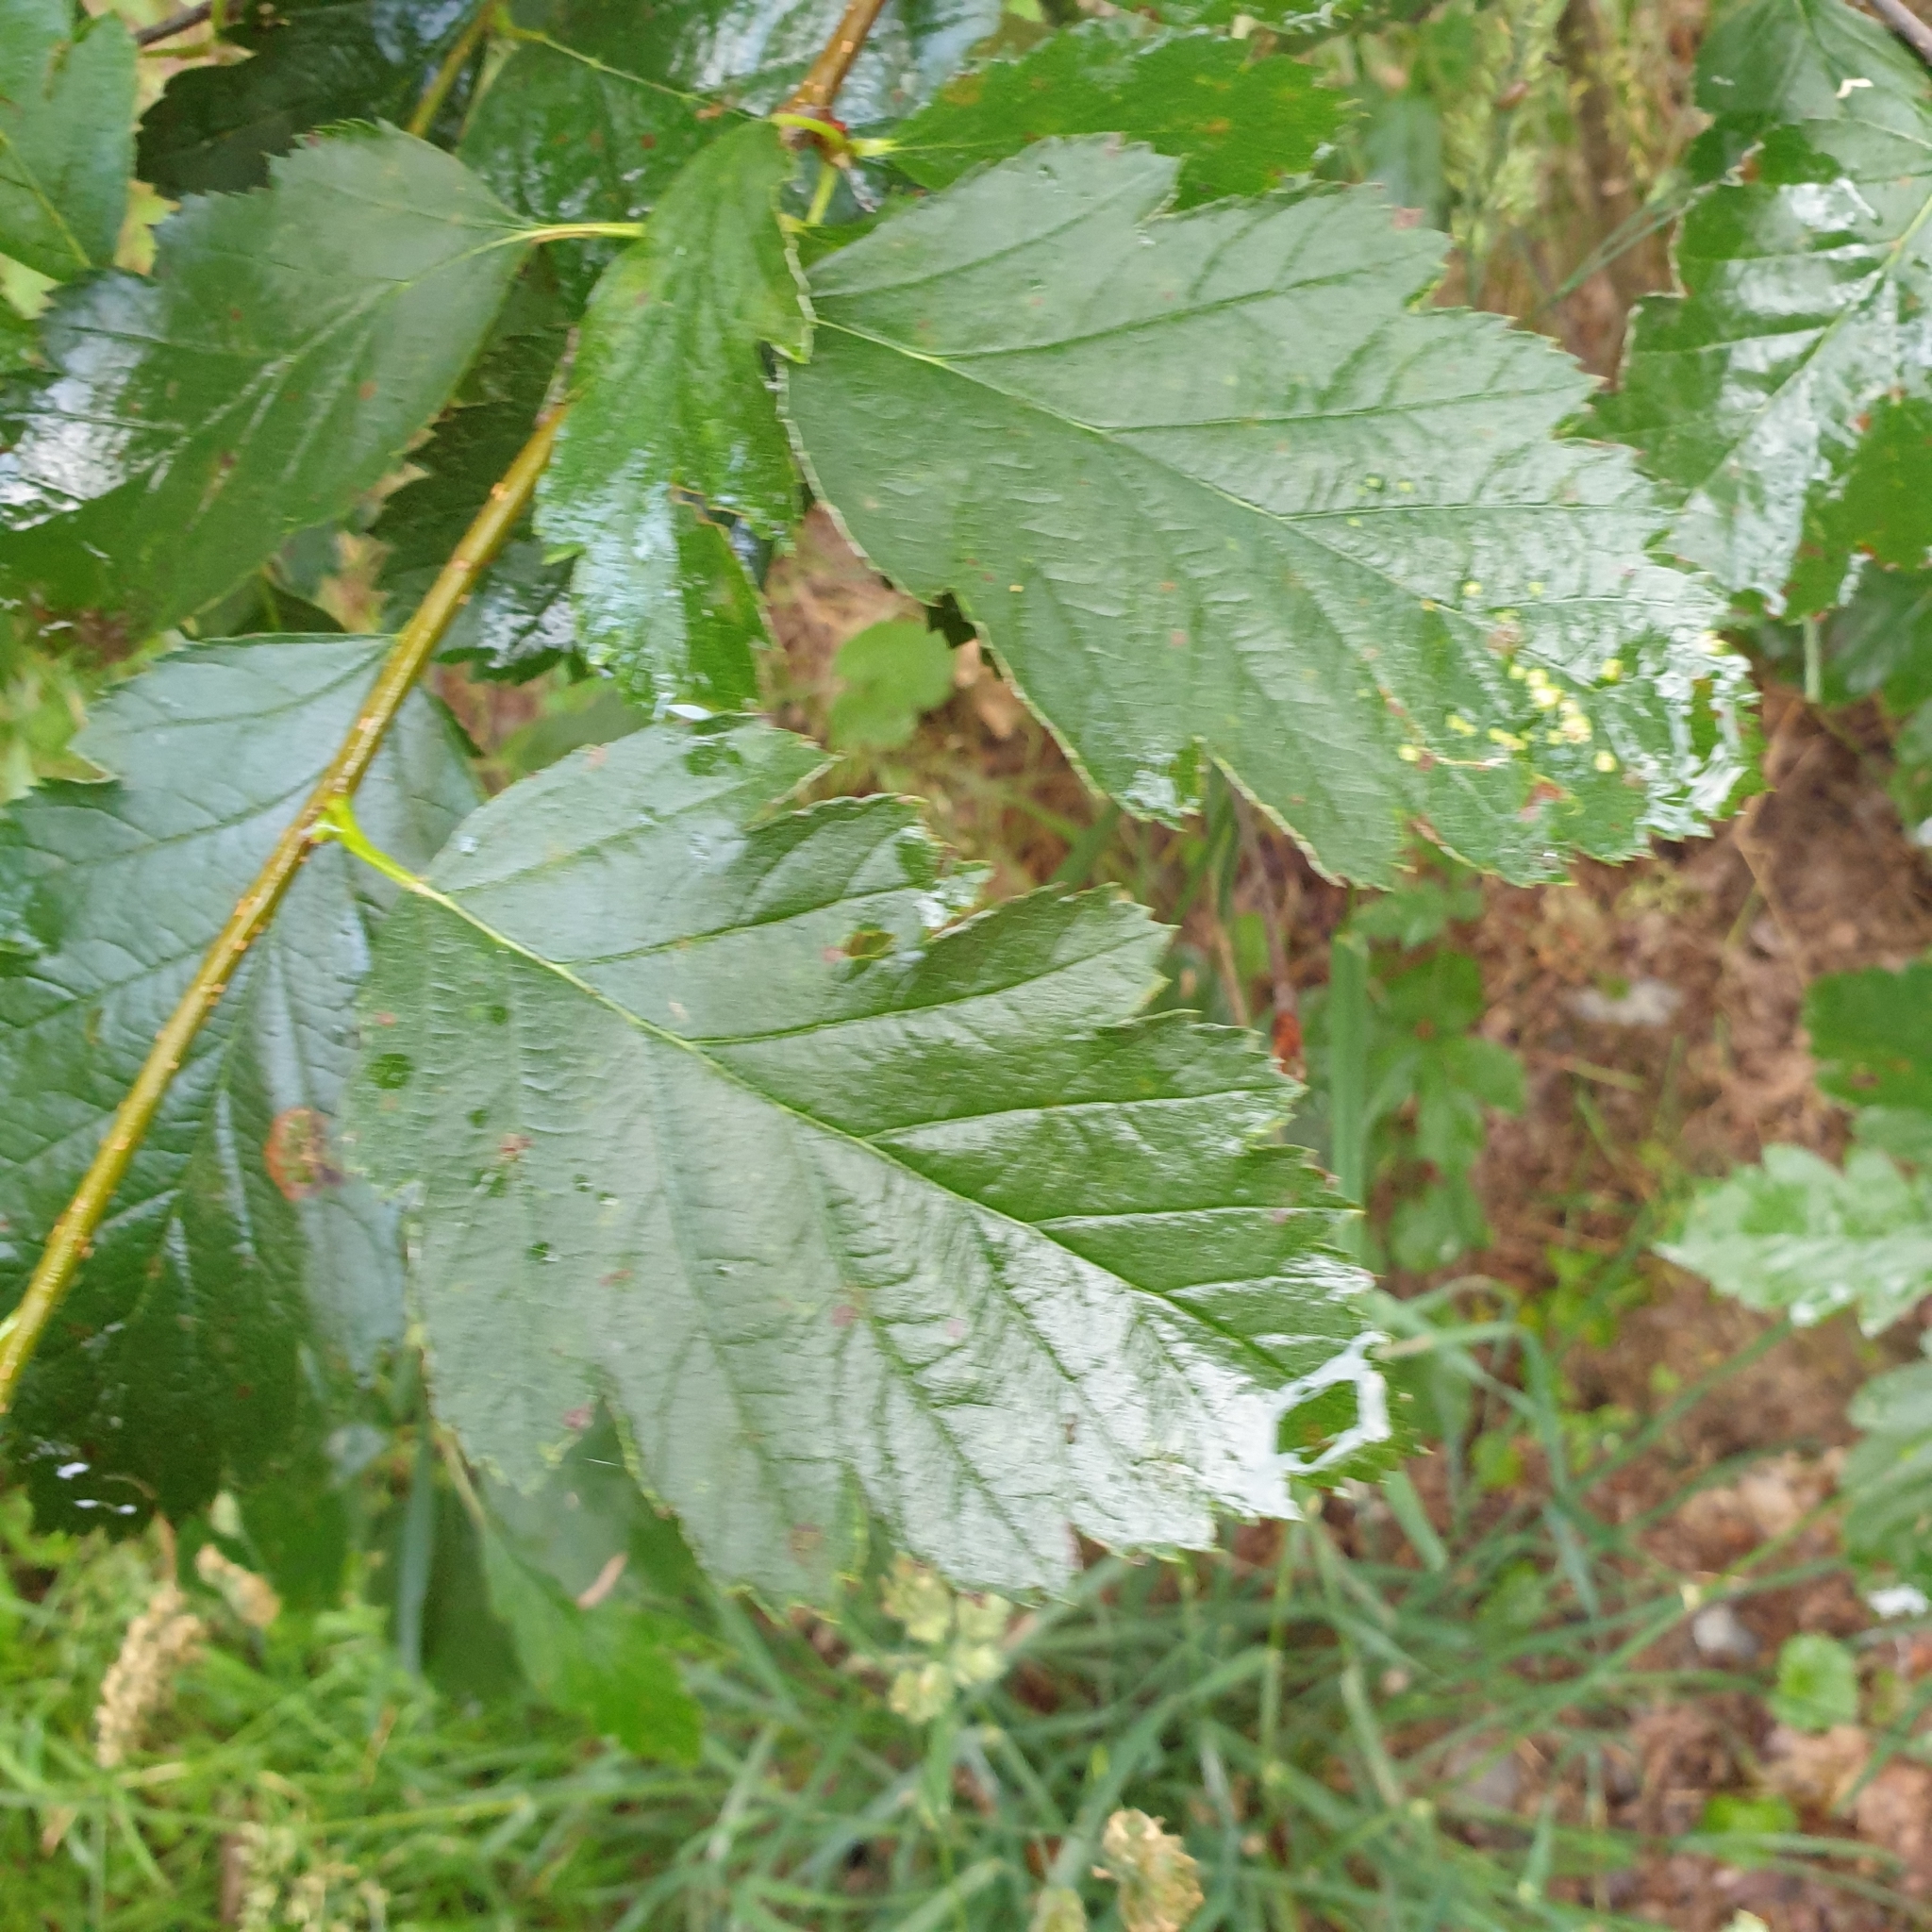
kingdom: Plantae
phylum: Tracheophyta
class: Magnoliopsida
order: Rosales
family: Rosaceae
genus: Scandosorbus
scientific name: Scandosorbus intermedia
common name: Swedish whitebeam
